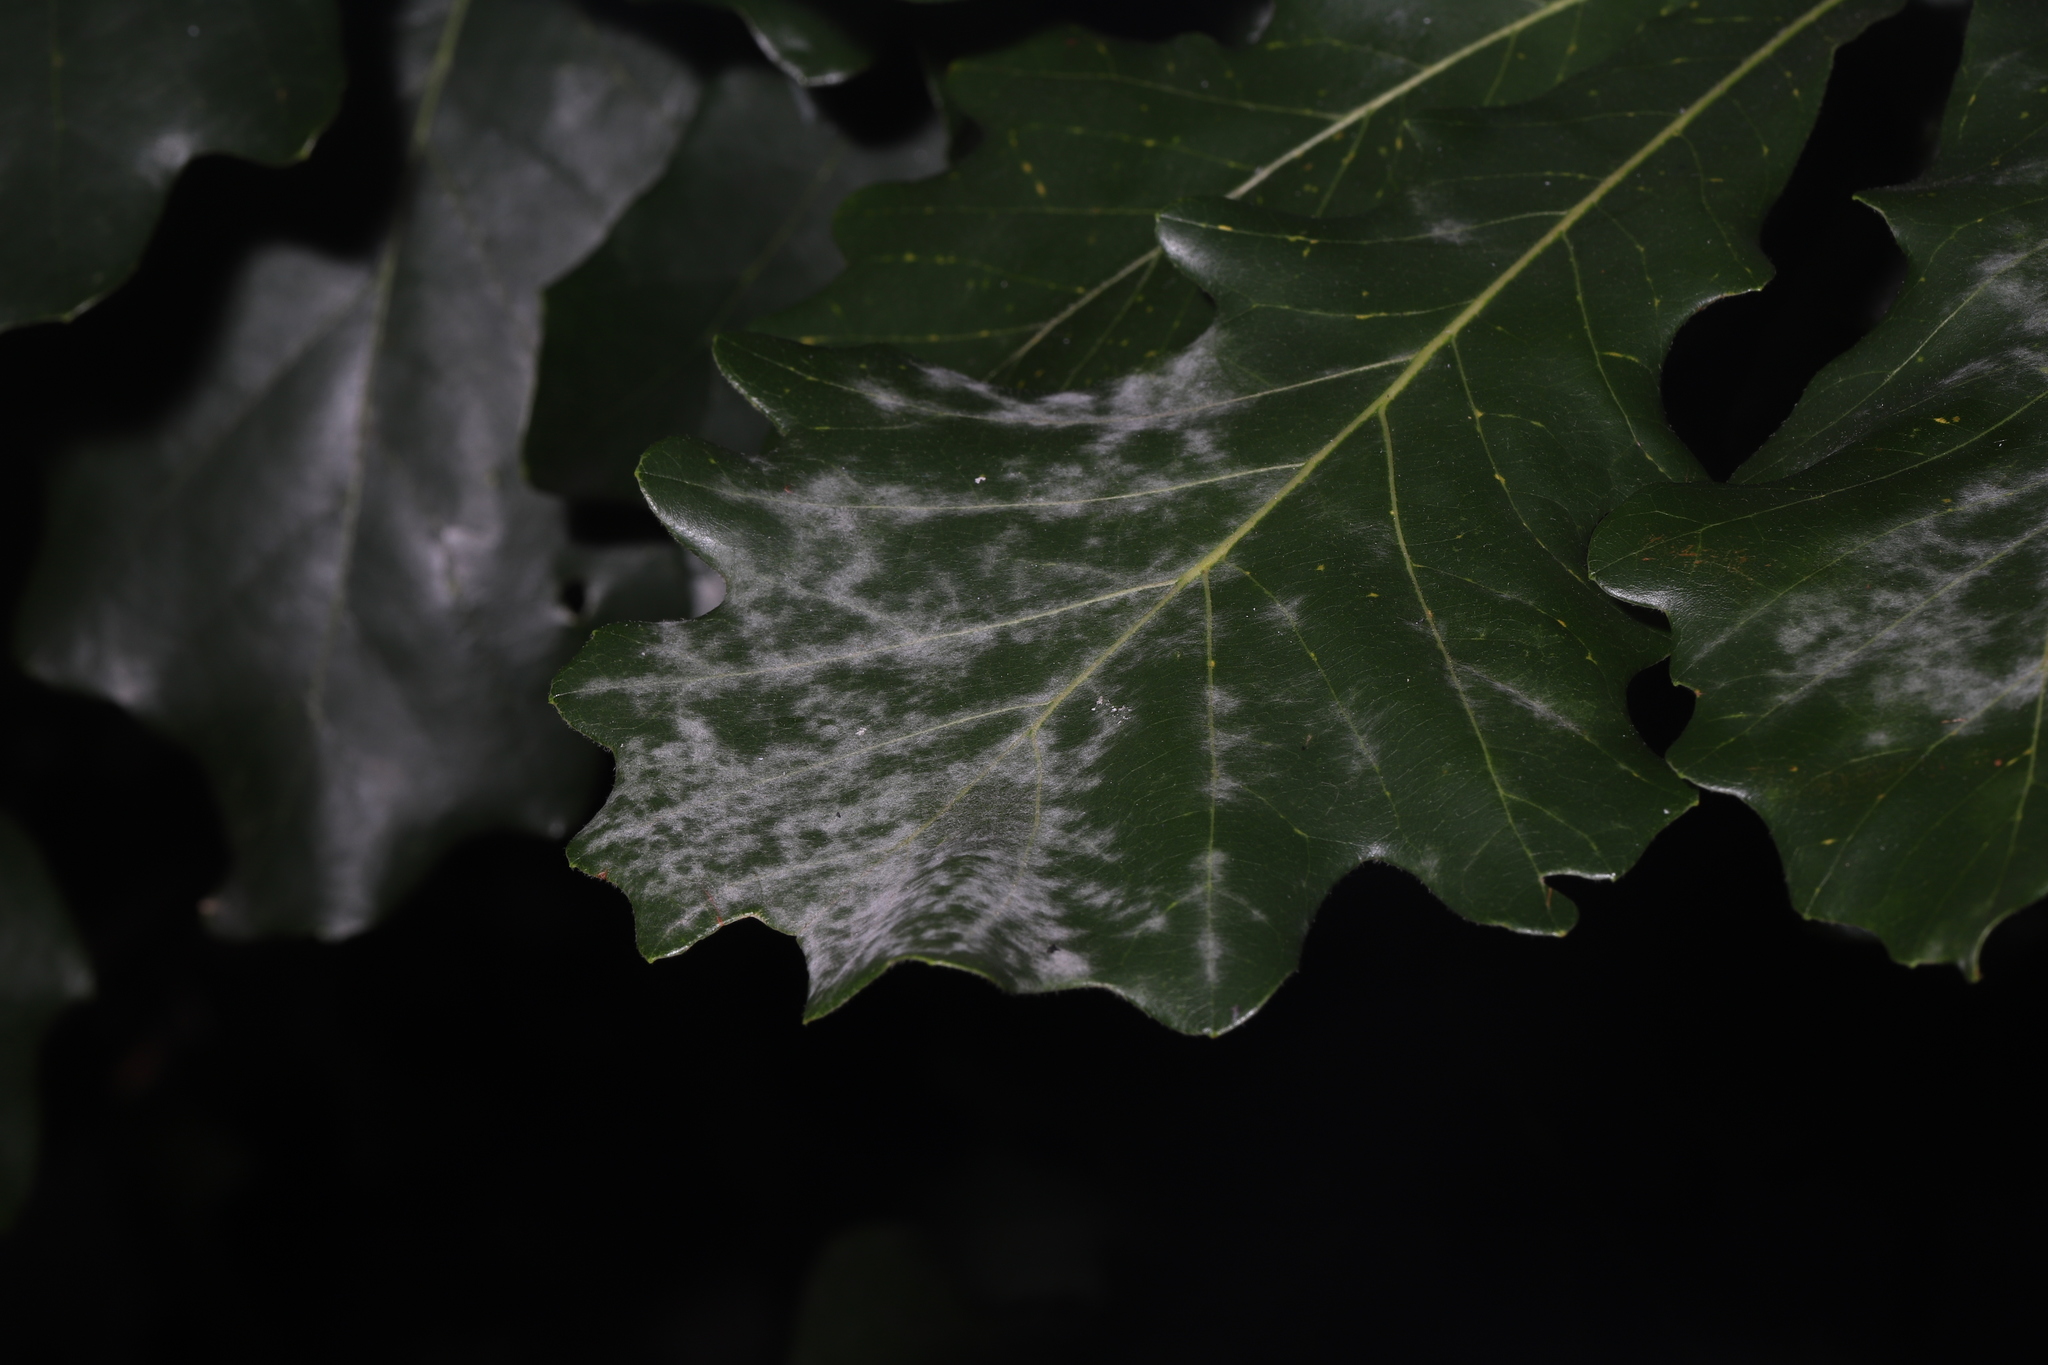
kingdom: Fungi
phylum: Ascomycota
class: Leotiomycetes
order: Helotiales
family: Erysiphaceae
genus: Erysiphe
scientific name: Erysiphe alphitoides
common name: Oak mildew
